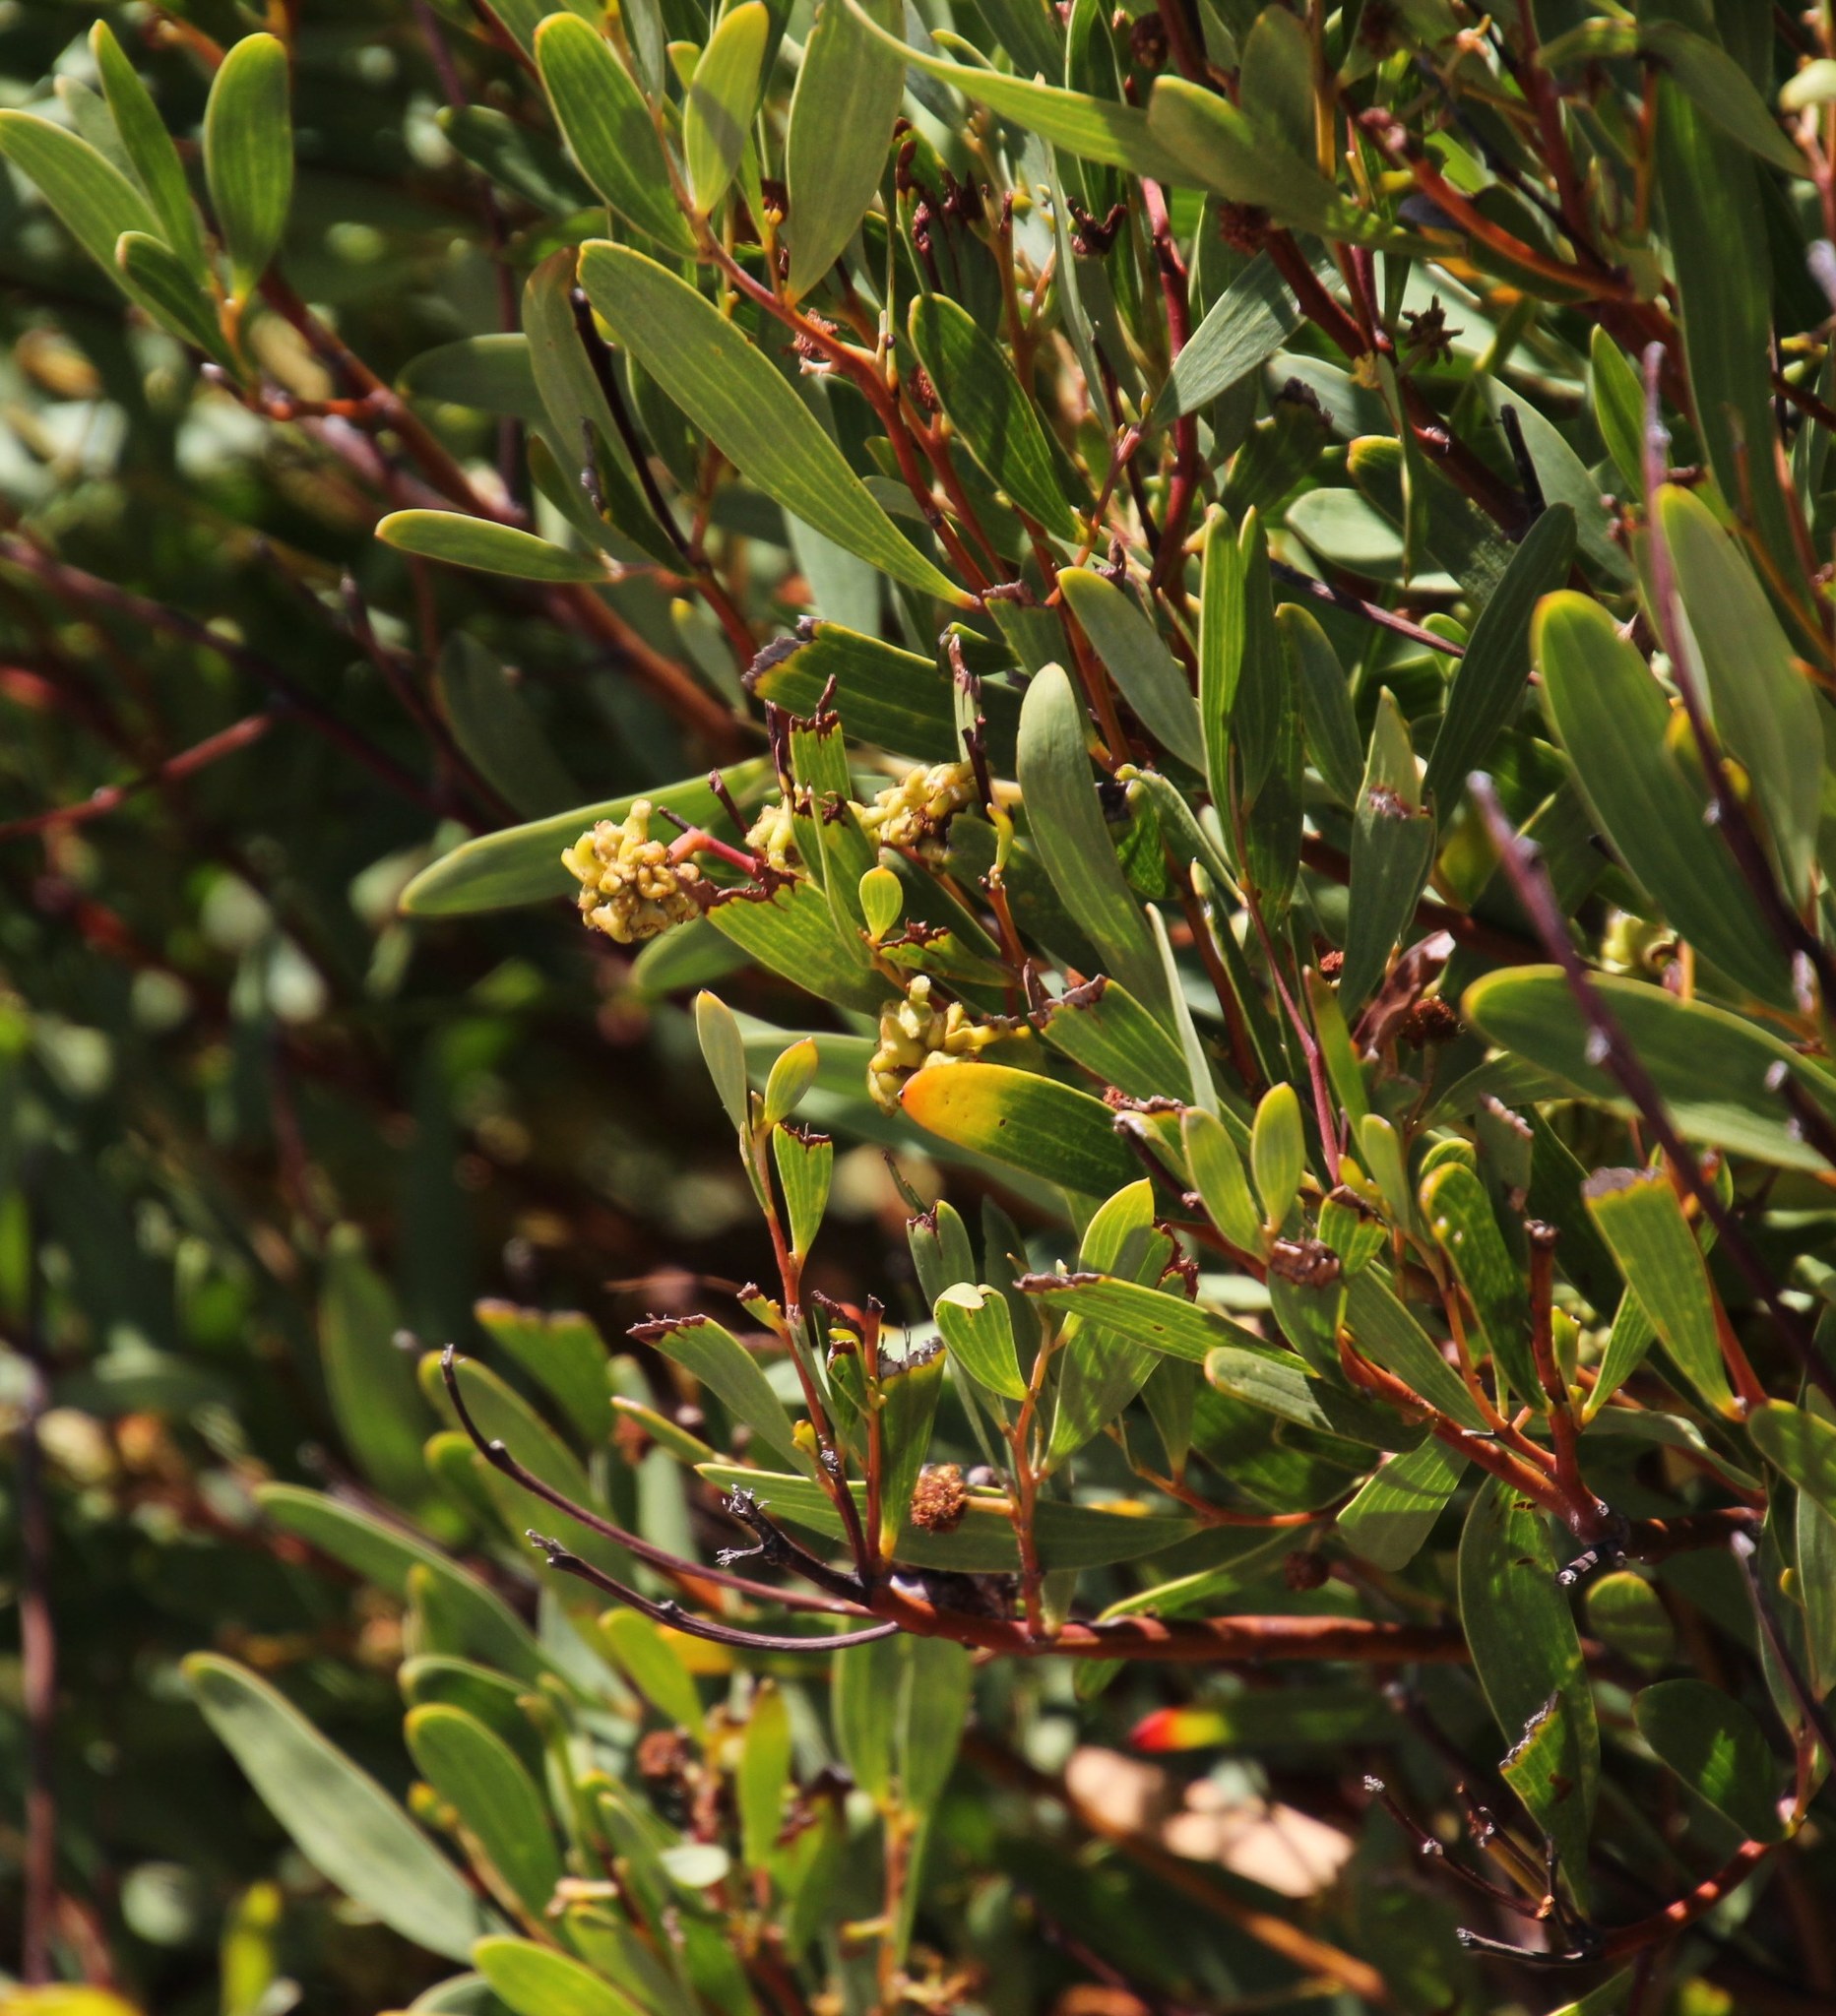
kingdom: Plantae
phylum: Tracheophyta
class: Magnoliopsida
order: Fabales
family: Fabaceae
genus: Acacia
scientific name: Acacia cyclops
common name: Coastal wattle
